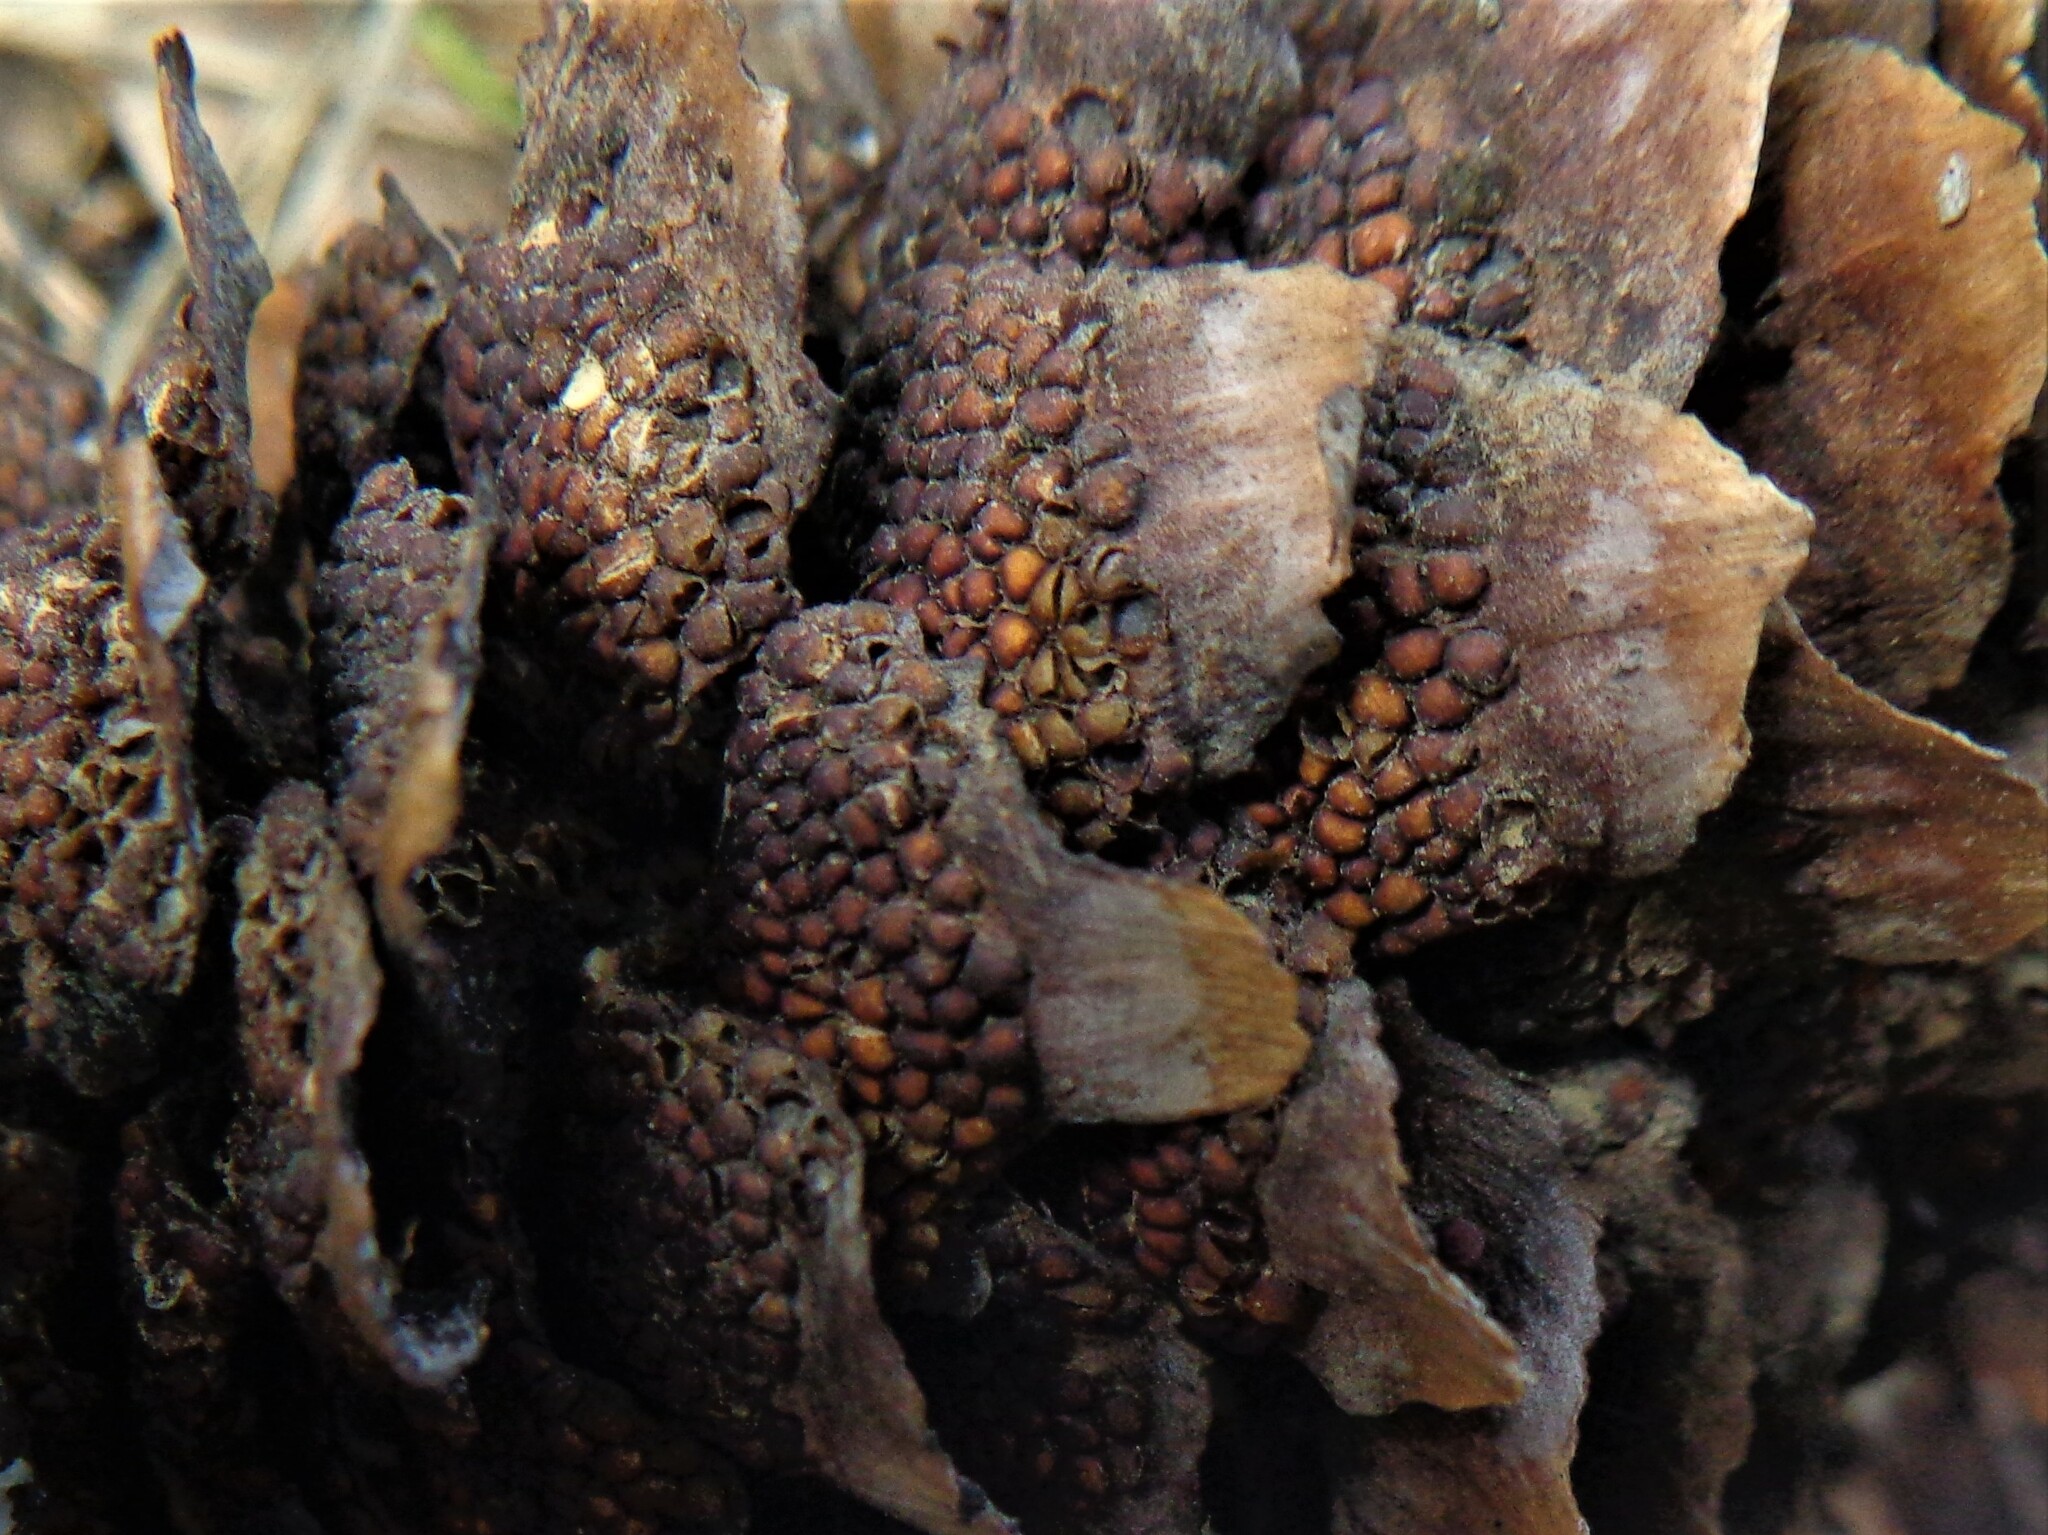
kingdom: Fungi
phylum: Basidiomycota
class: Pucciniomycetes
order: Pucciniales
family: Pucciniastraceae
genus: Thekopsora
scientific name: Thekopsora areolata
